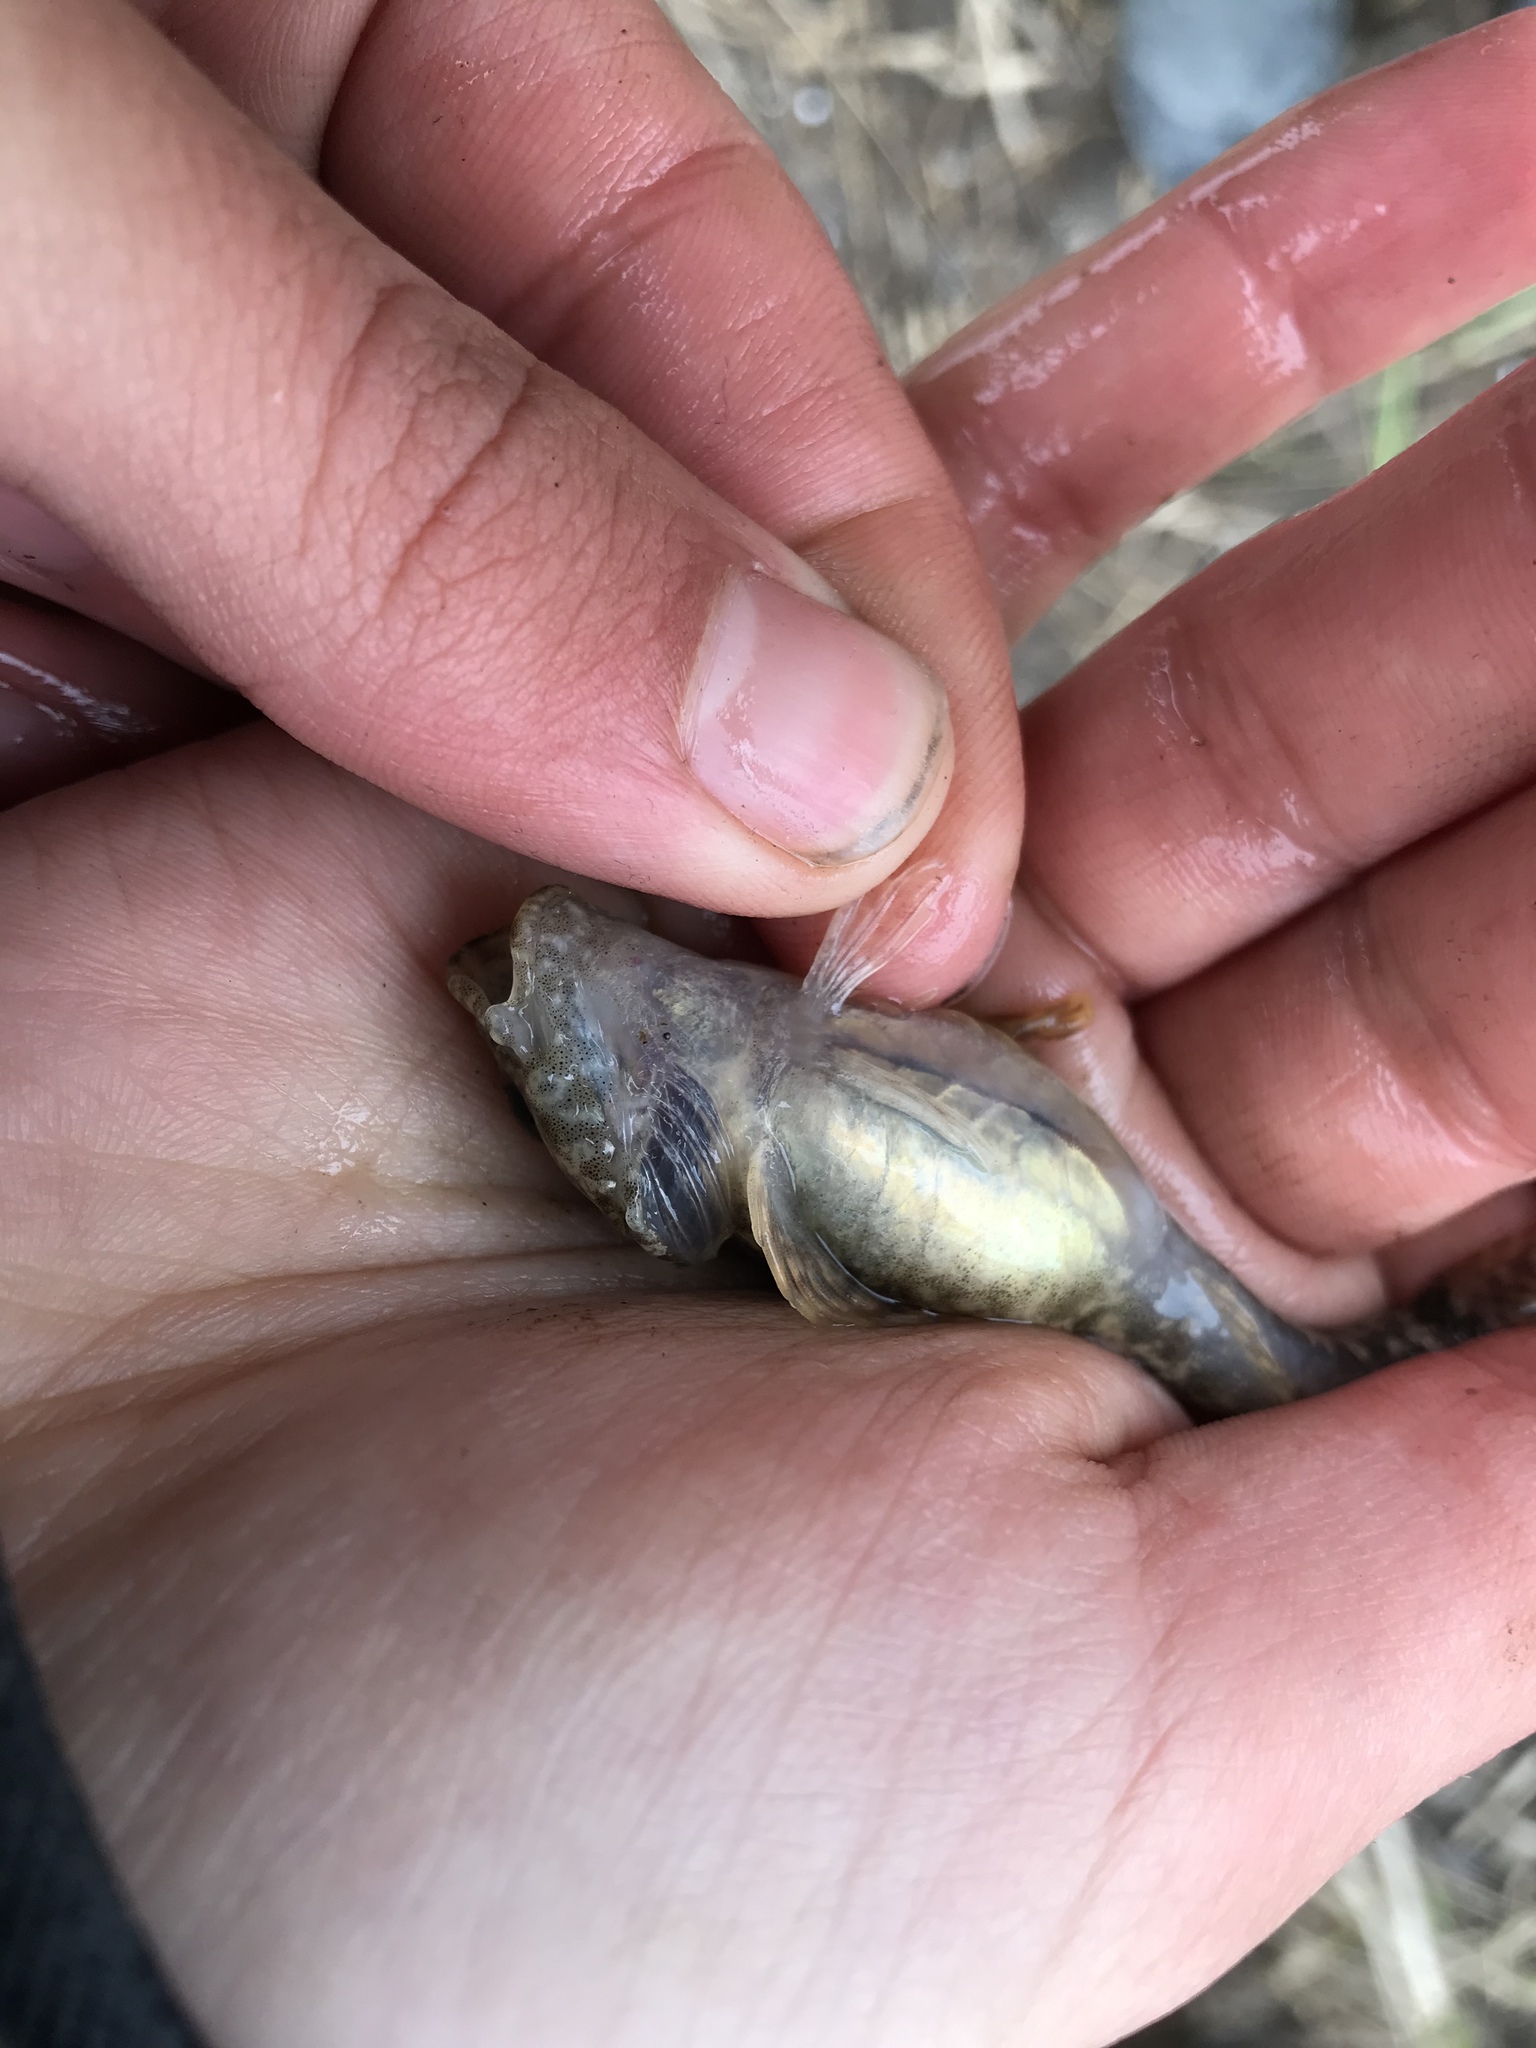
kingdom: Animalia
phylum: Chordata
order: Scorpaeniformes
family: Cottidae
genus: Cottus
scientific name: Cottus bairdii
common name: Mottled sculpin
